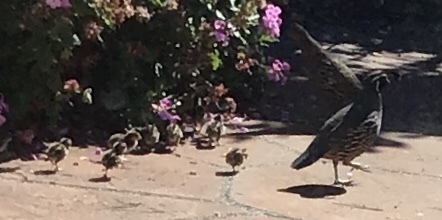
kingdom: Animalia
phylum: Chordata
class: Aves
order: Galliformes
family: Odontophoridae
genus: Callipepla
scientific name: Callipepla californica
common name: California quail
